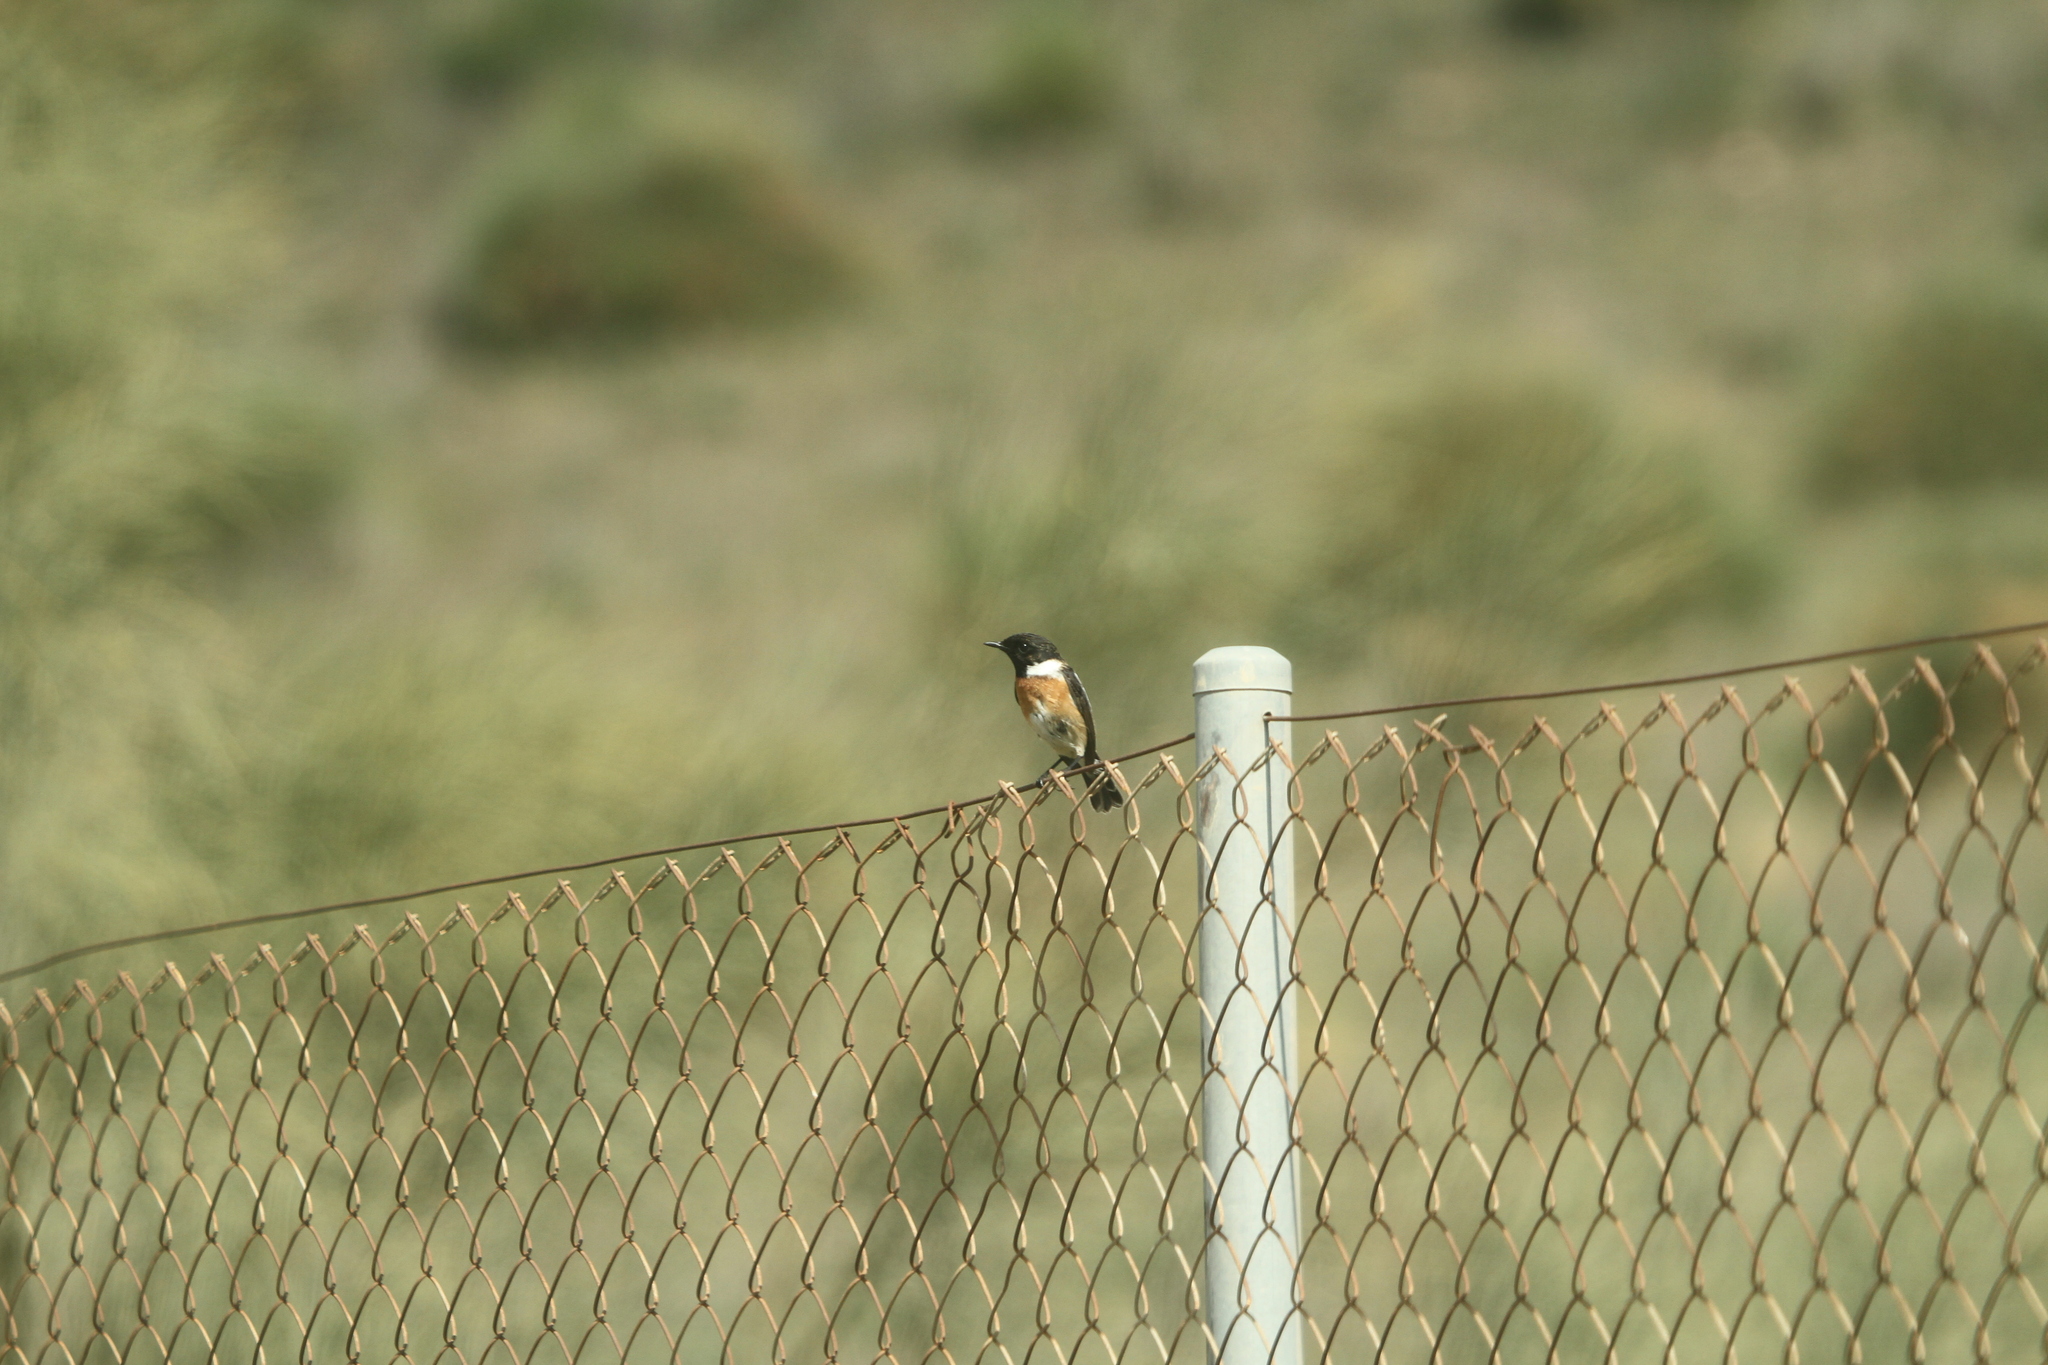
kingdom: Animalia
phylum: Chordata
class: Aves
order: Passeriformes
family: Muscicapidae
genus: Saxicola
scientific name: Saxicola rubicola
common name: European stonechat
